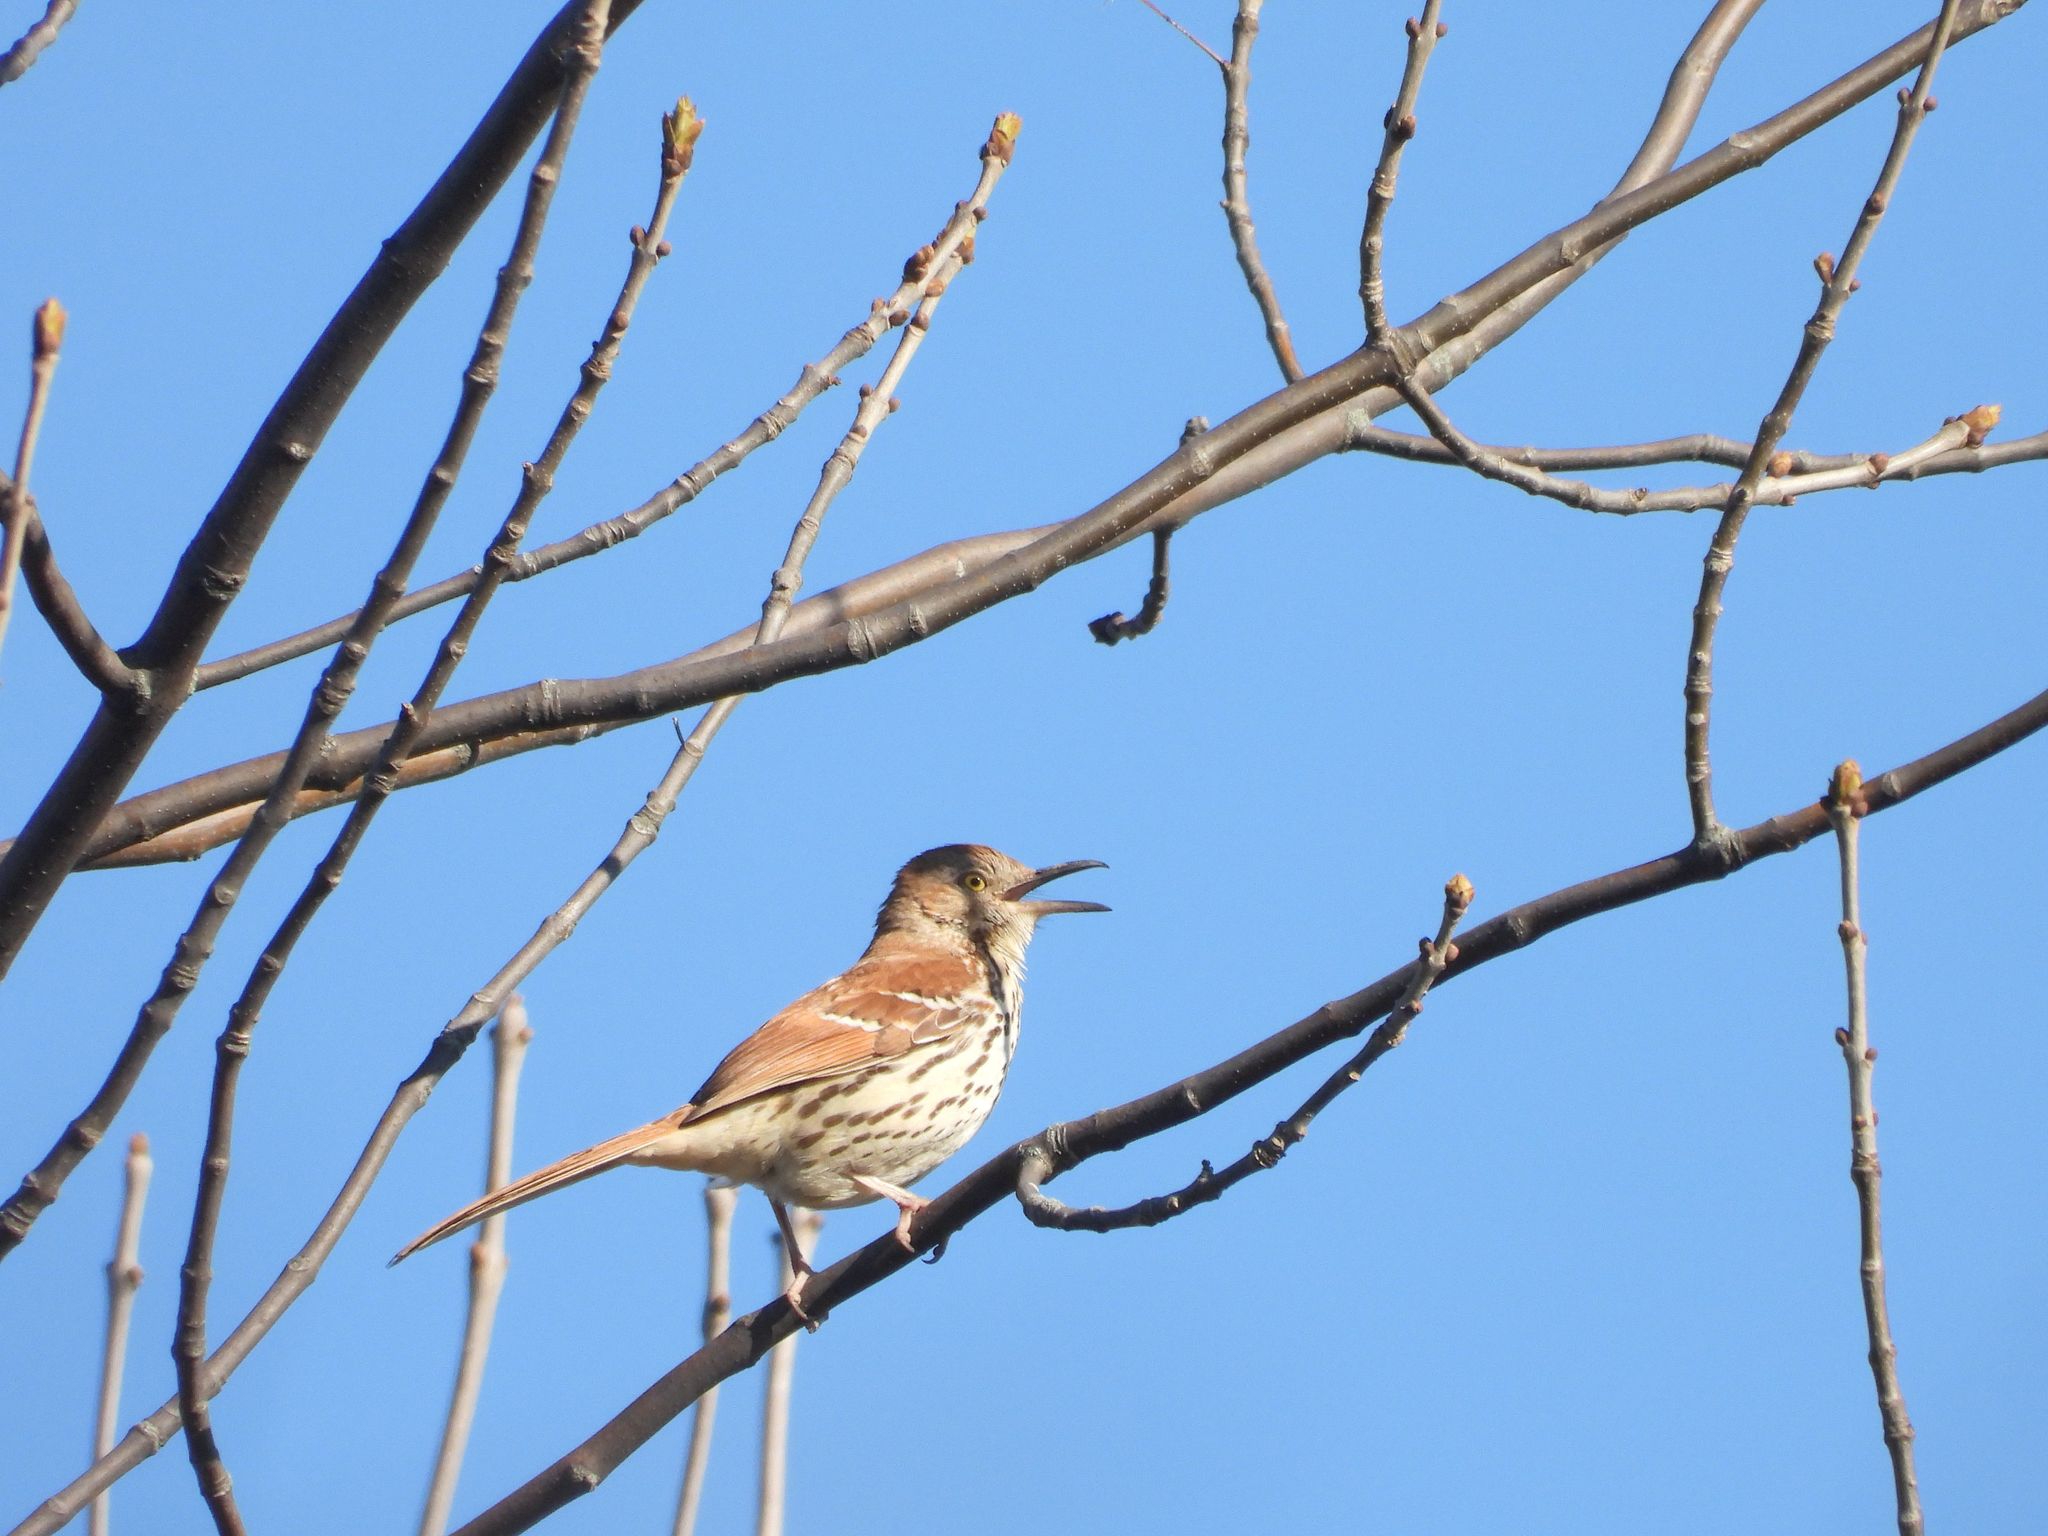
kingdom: Animalia
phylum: Chordata
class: Aves
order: Passeriformes
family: Mimidae
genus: Toxostoma
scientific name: Toxostoma rufum
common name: Brown thrasher
